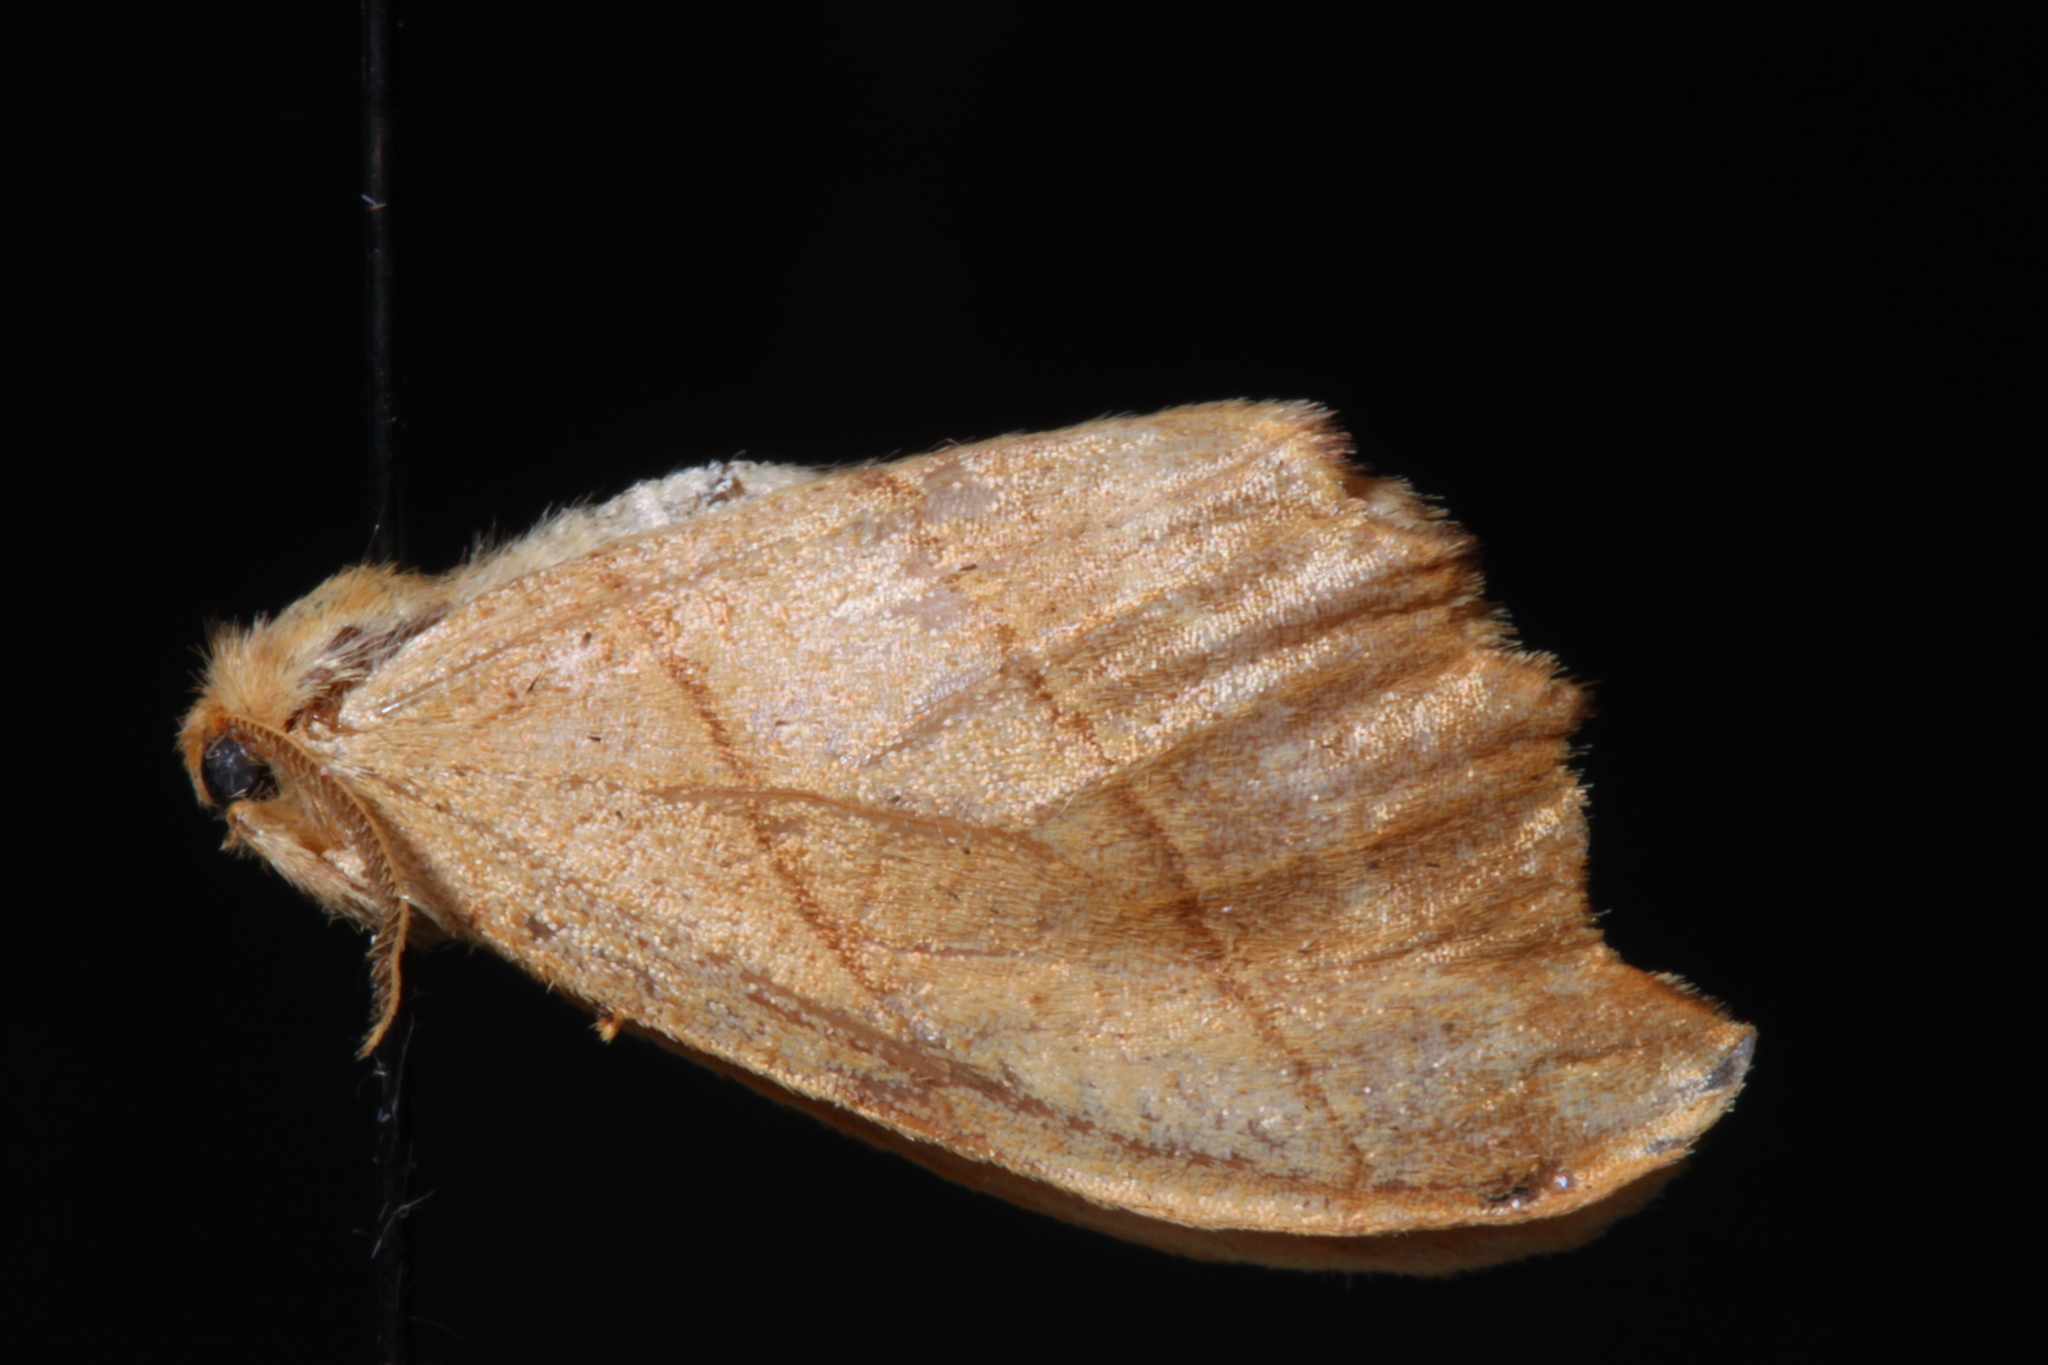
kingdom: Animalia
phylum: Arthropoda
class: Insecta
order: Lepidoptera
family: Drepanidae
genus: Falcaria
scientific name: Falcaria bilineata
